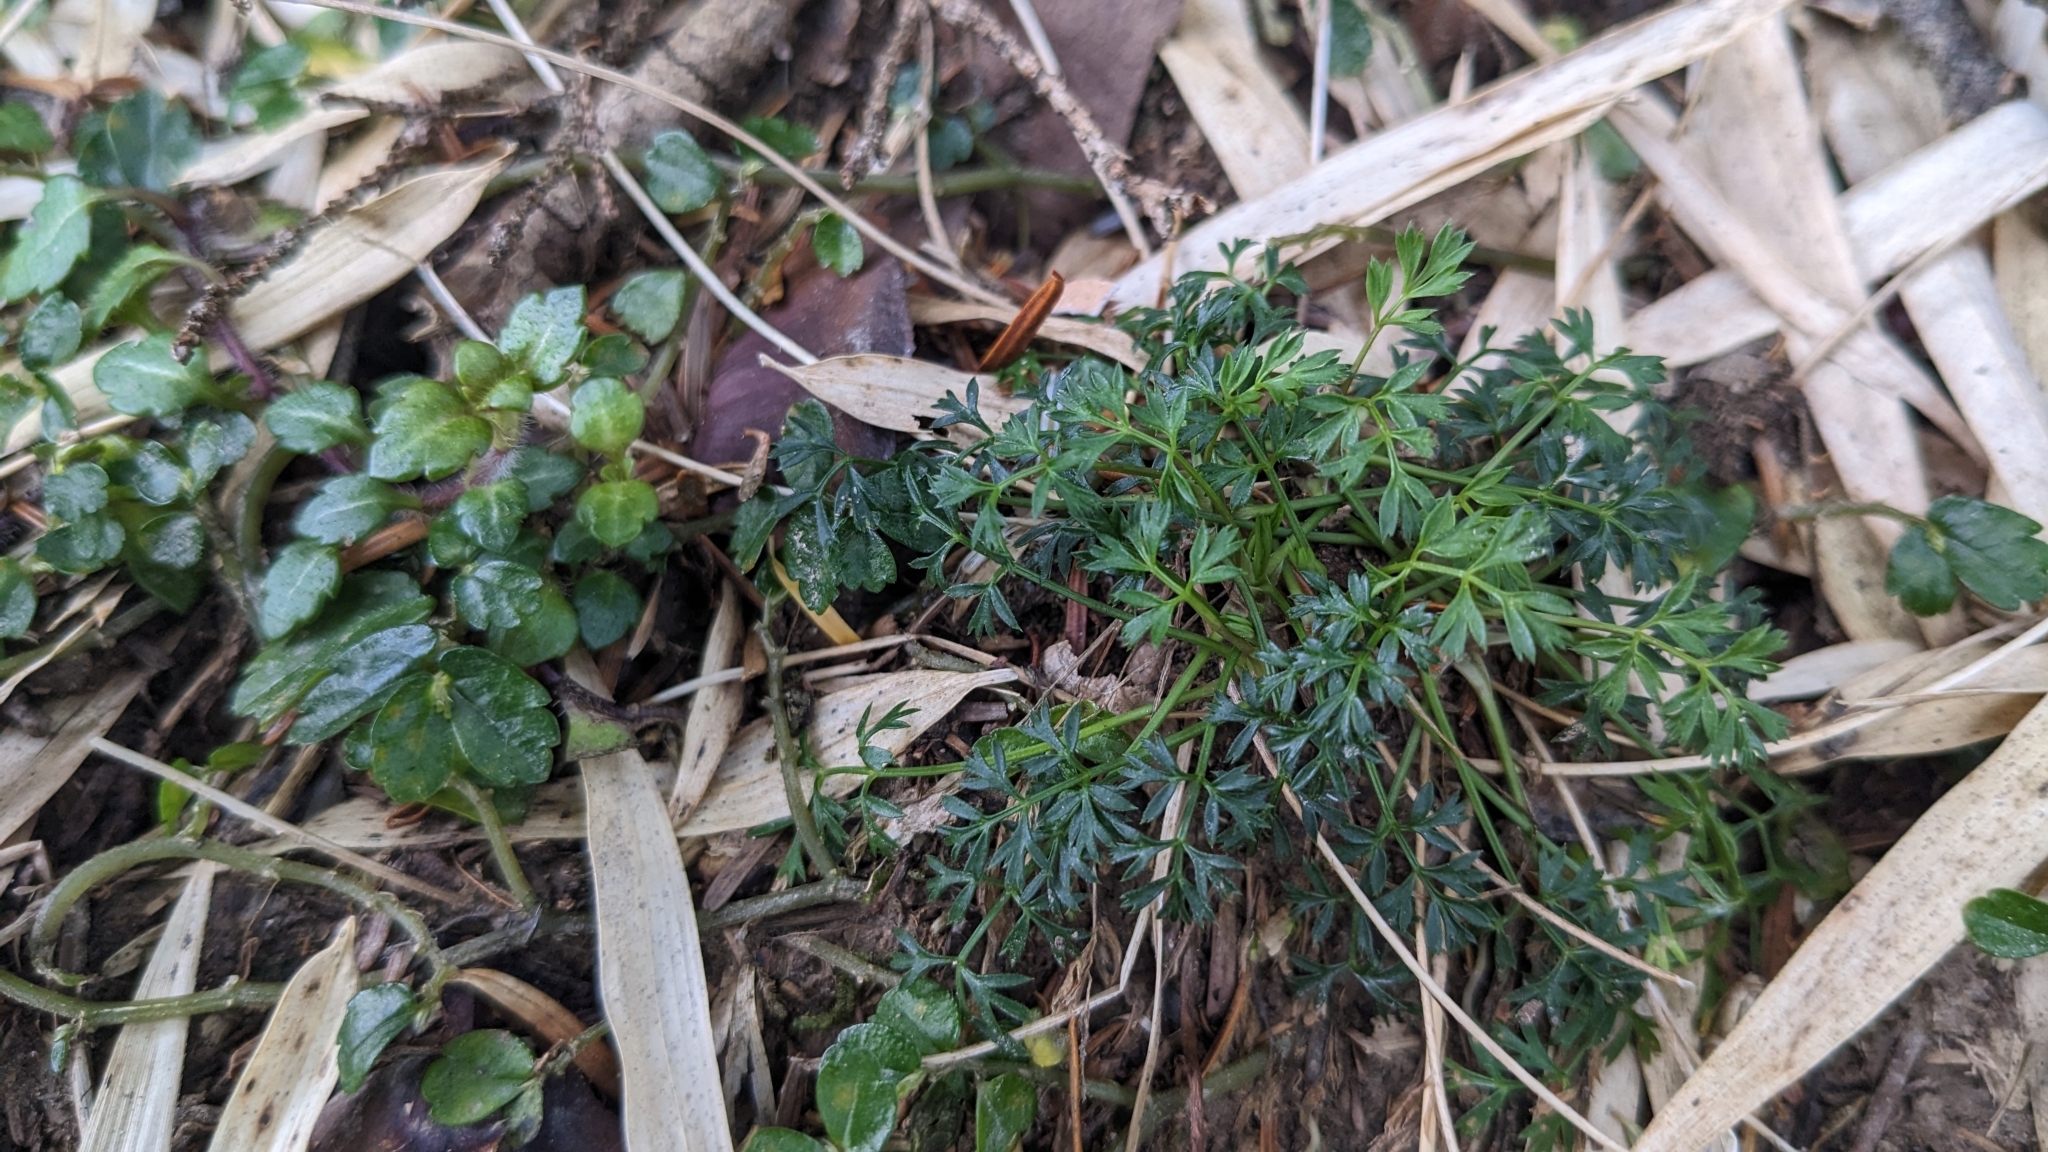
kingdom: Plantae
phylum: Tracheophyta
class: Magnoliopsida
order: Apiales
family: Apiaceae
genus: Chaerophyllum
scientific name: Chaerophyllum involucratum
